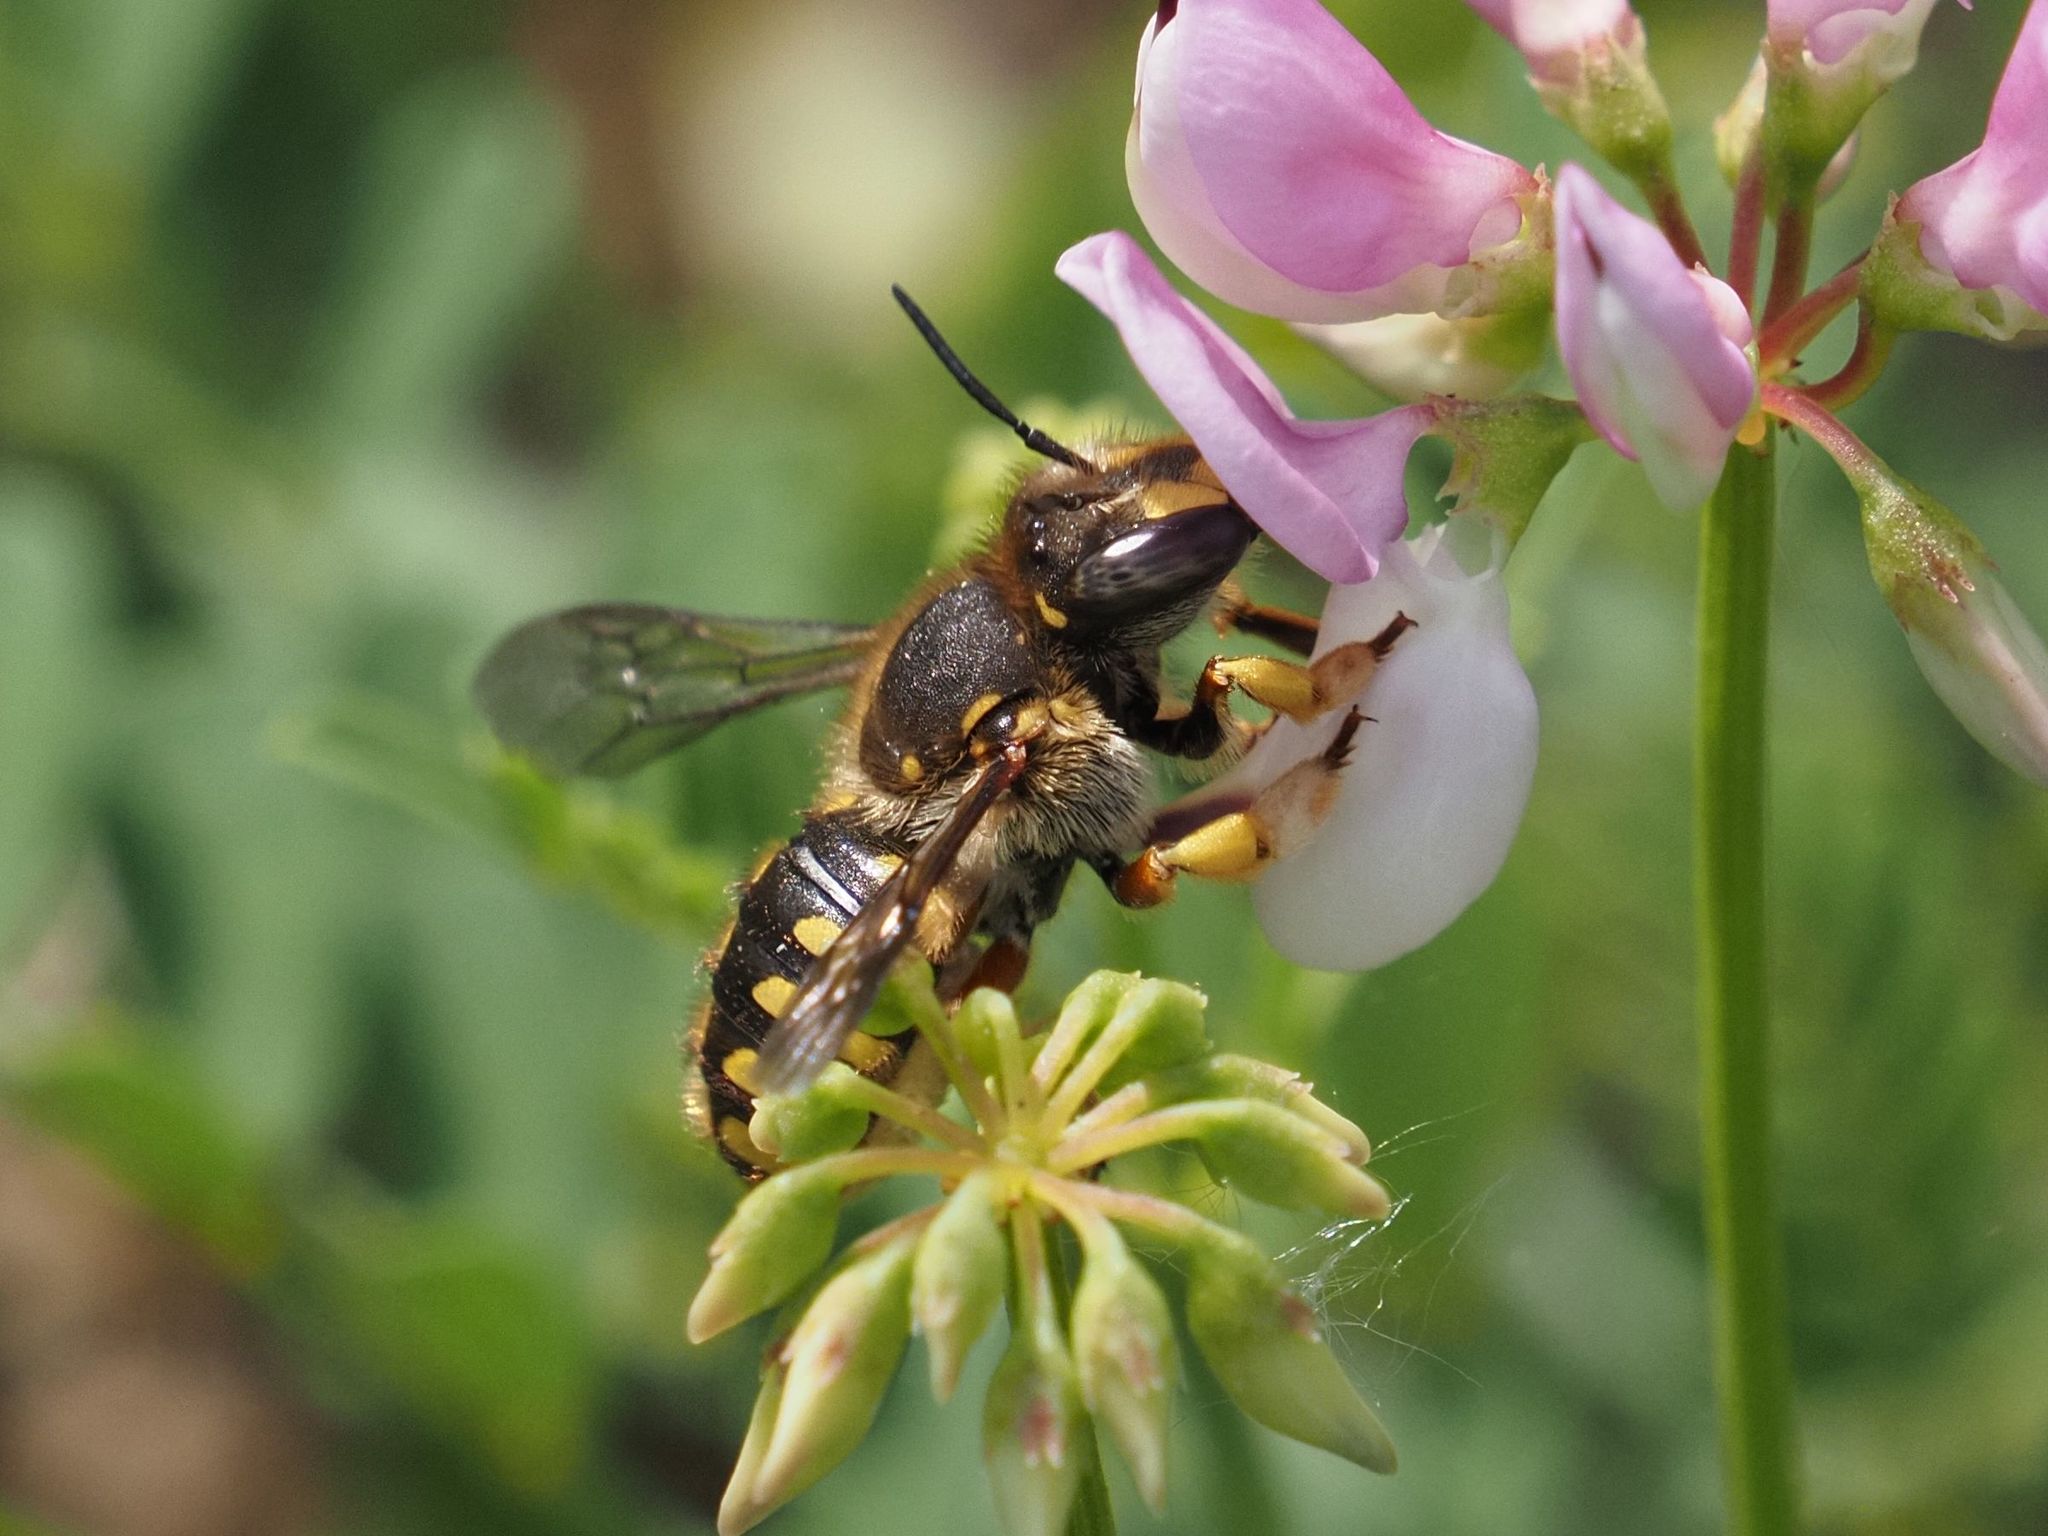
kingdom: Animalia
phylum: Arthropoda
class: Insecta
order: Hymenoptera
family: Megachilidae
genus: Anthidium
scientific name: Anthidium manicatum
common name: Wool carder bee
